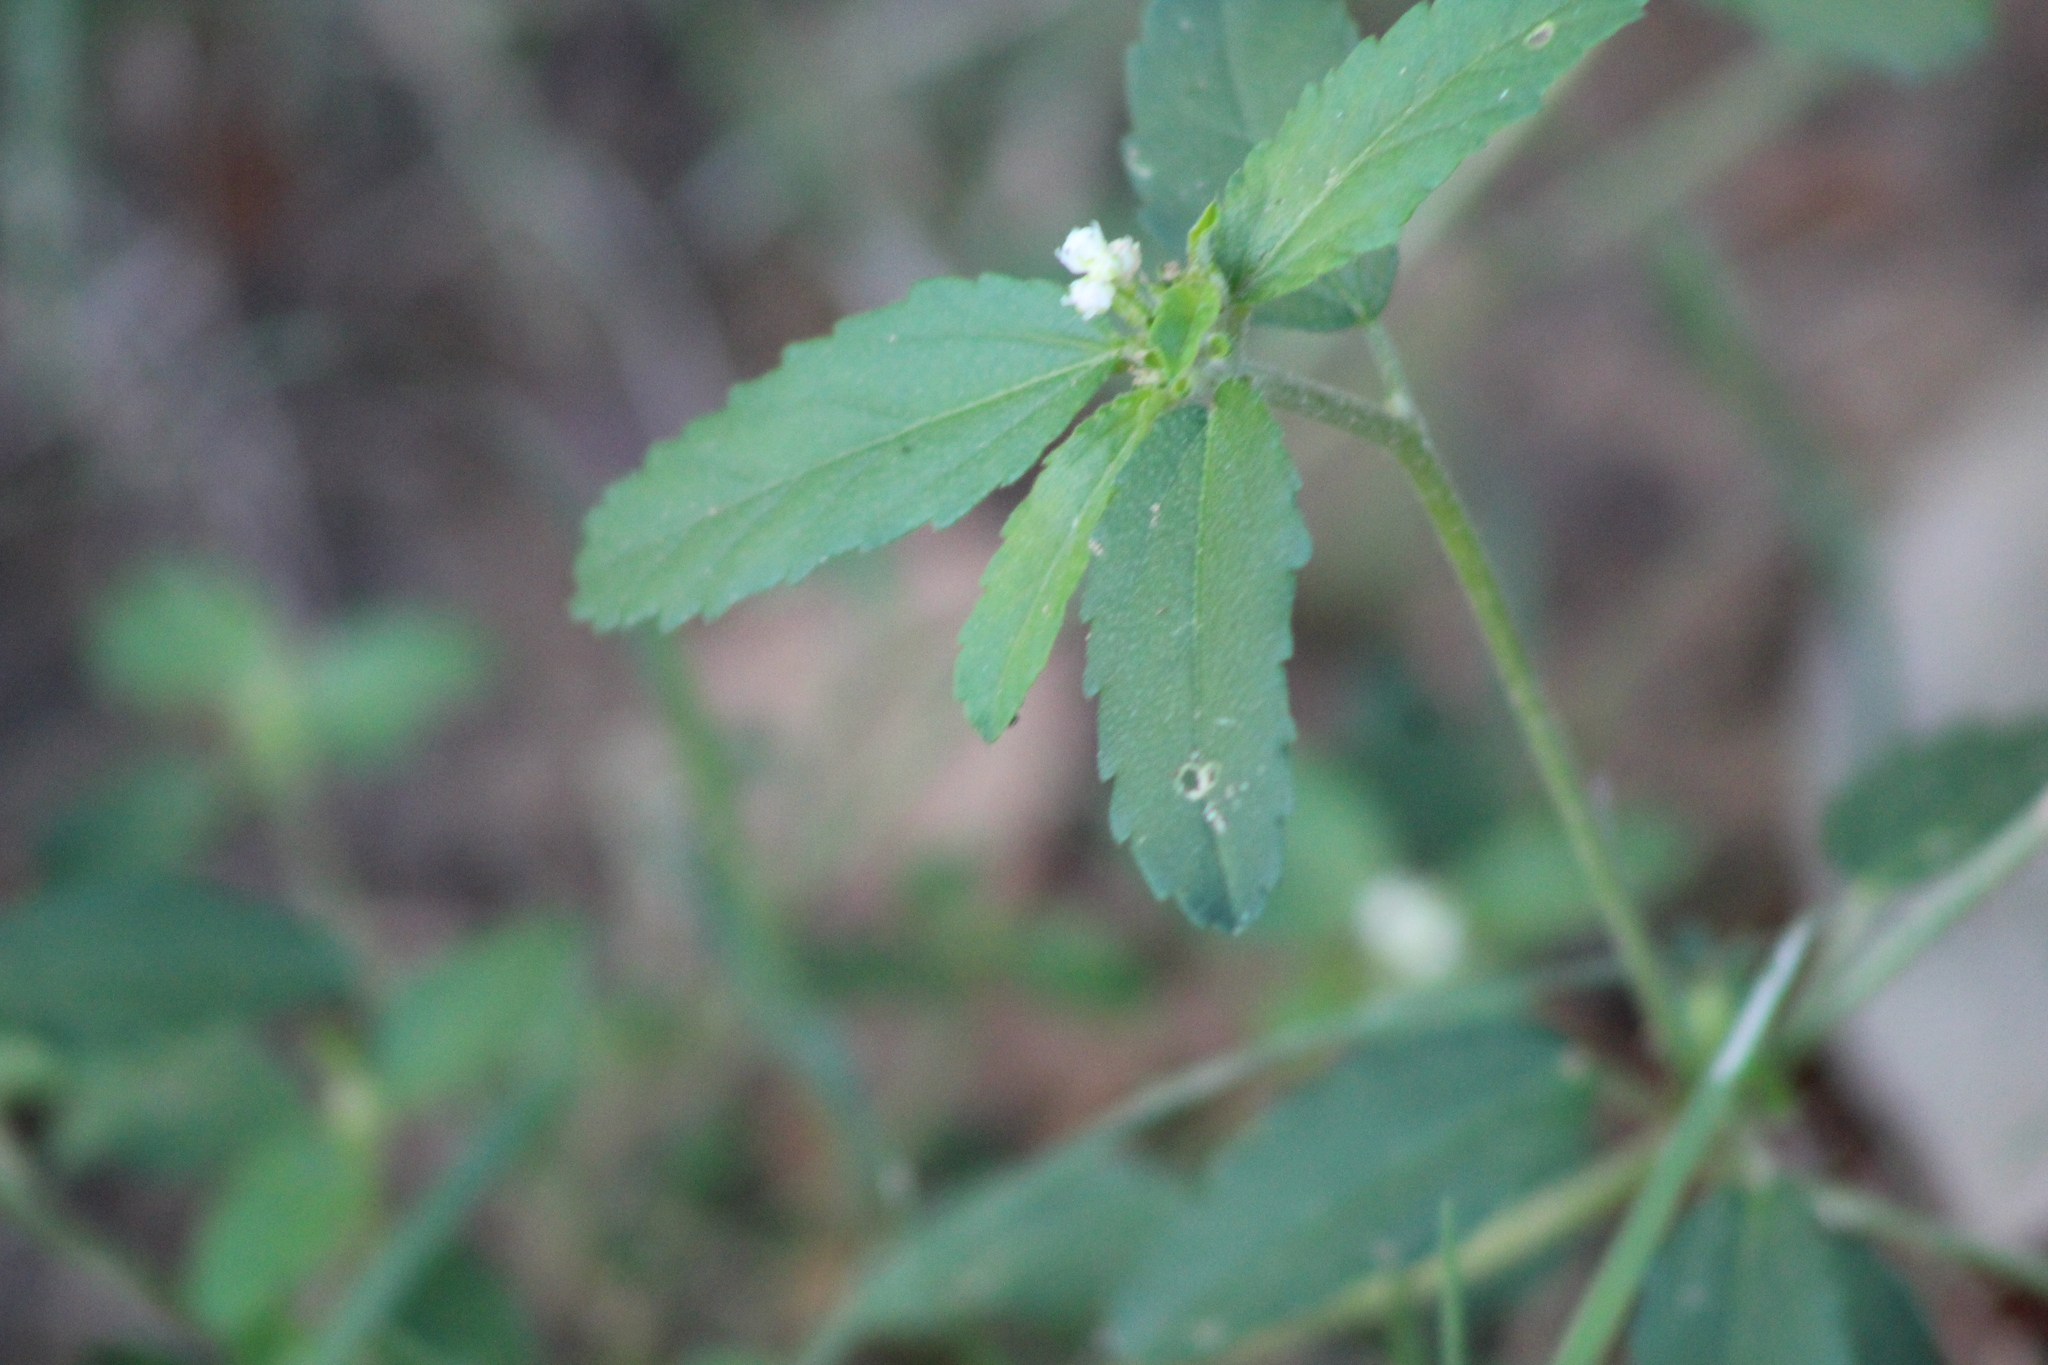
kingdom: Plantae
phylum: Tracheophyta
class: Magnoliopsida
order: Malpighiales
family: Euphorbiaceae
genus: Croton
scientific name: Croton glandulosus
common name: Tropic croton
